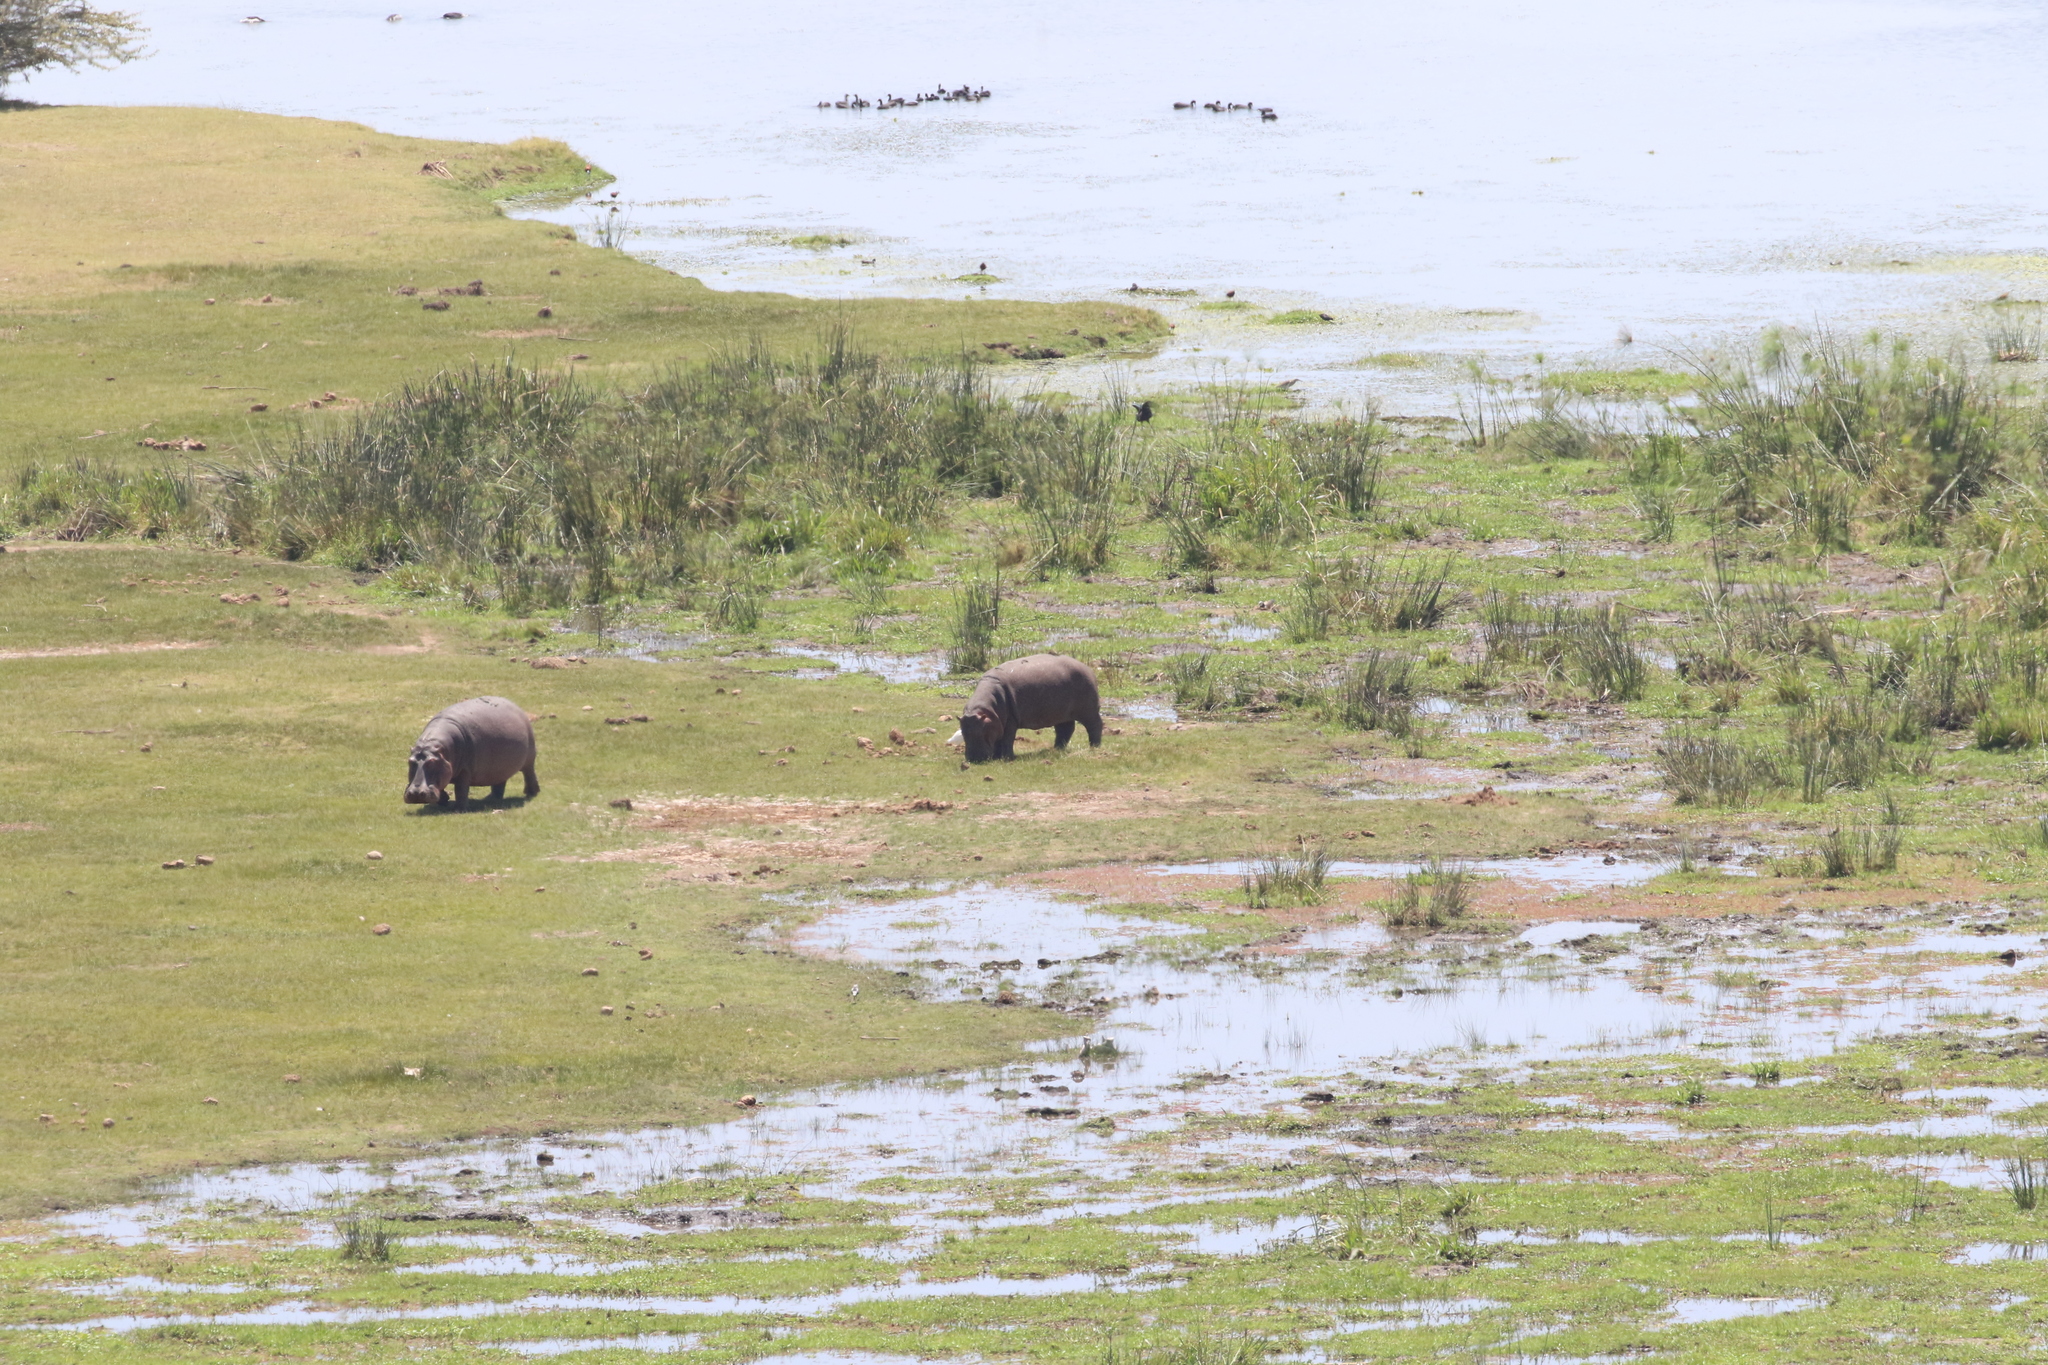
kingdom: Animalia
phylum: Chordata
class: Mammalia
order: Artiodactyla
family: Hippopotamidae
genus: Hippopotamus
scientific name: Hippopotamus amphibius
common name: Common hippopotamus
